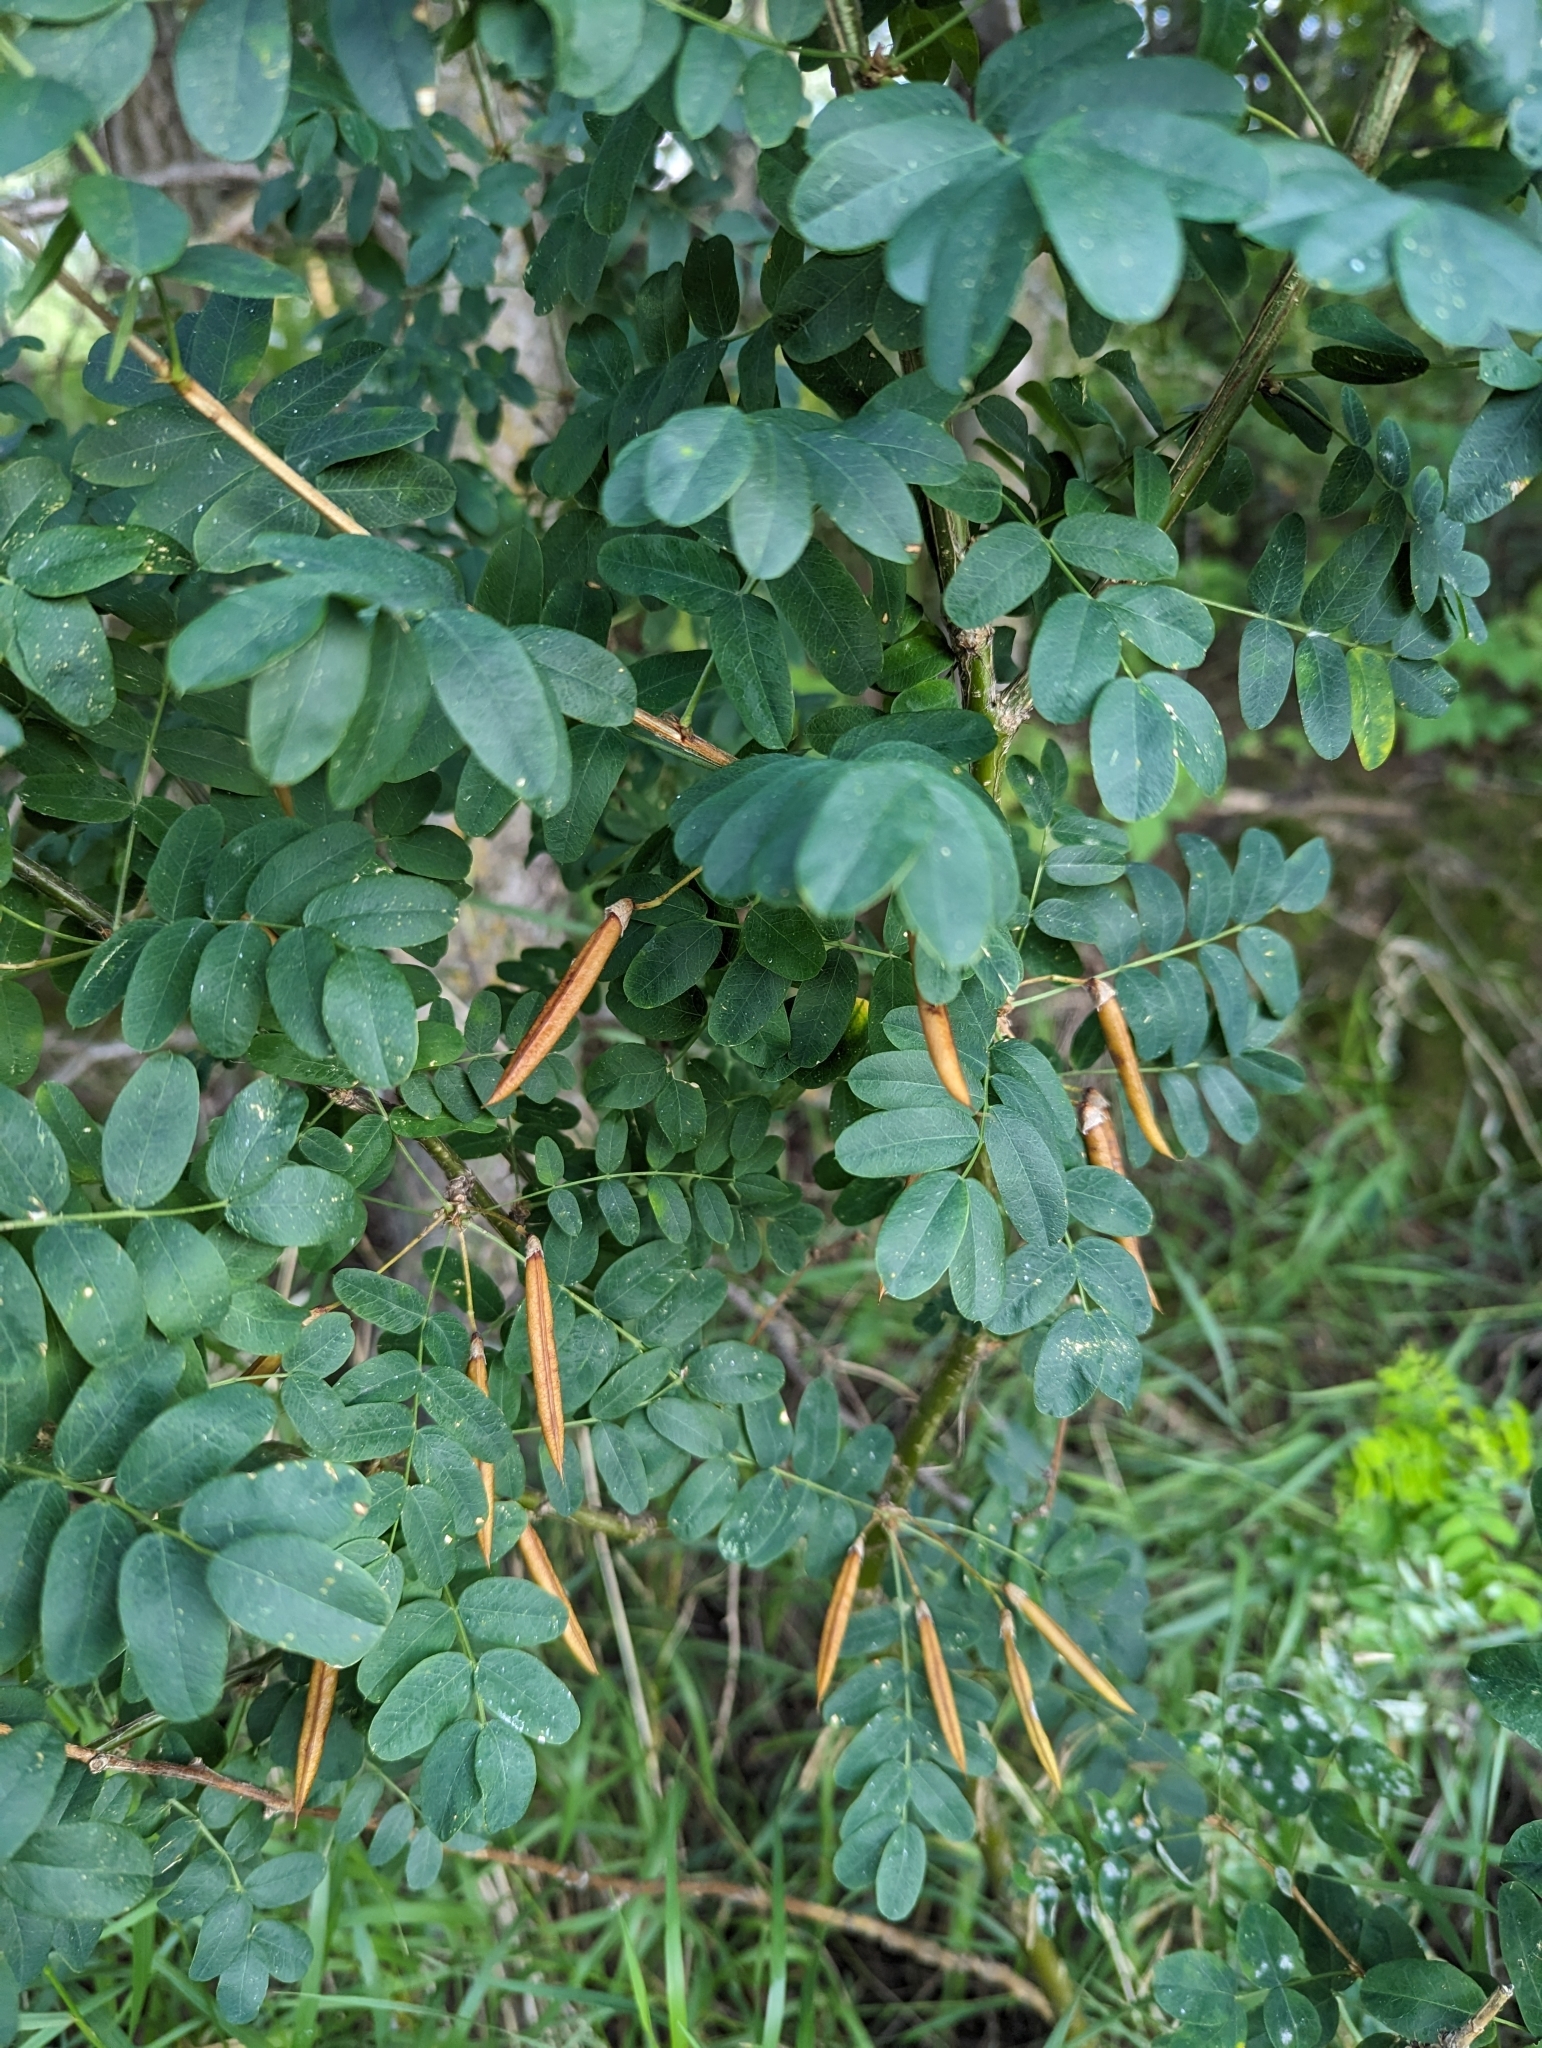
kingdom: Plantae
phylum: Tracheophyta
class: Magnoliopsida
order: Fabales
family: Fabaceae
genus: Caragana
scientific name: Caragana arborescens
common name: Siberian peashrub
